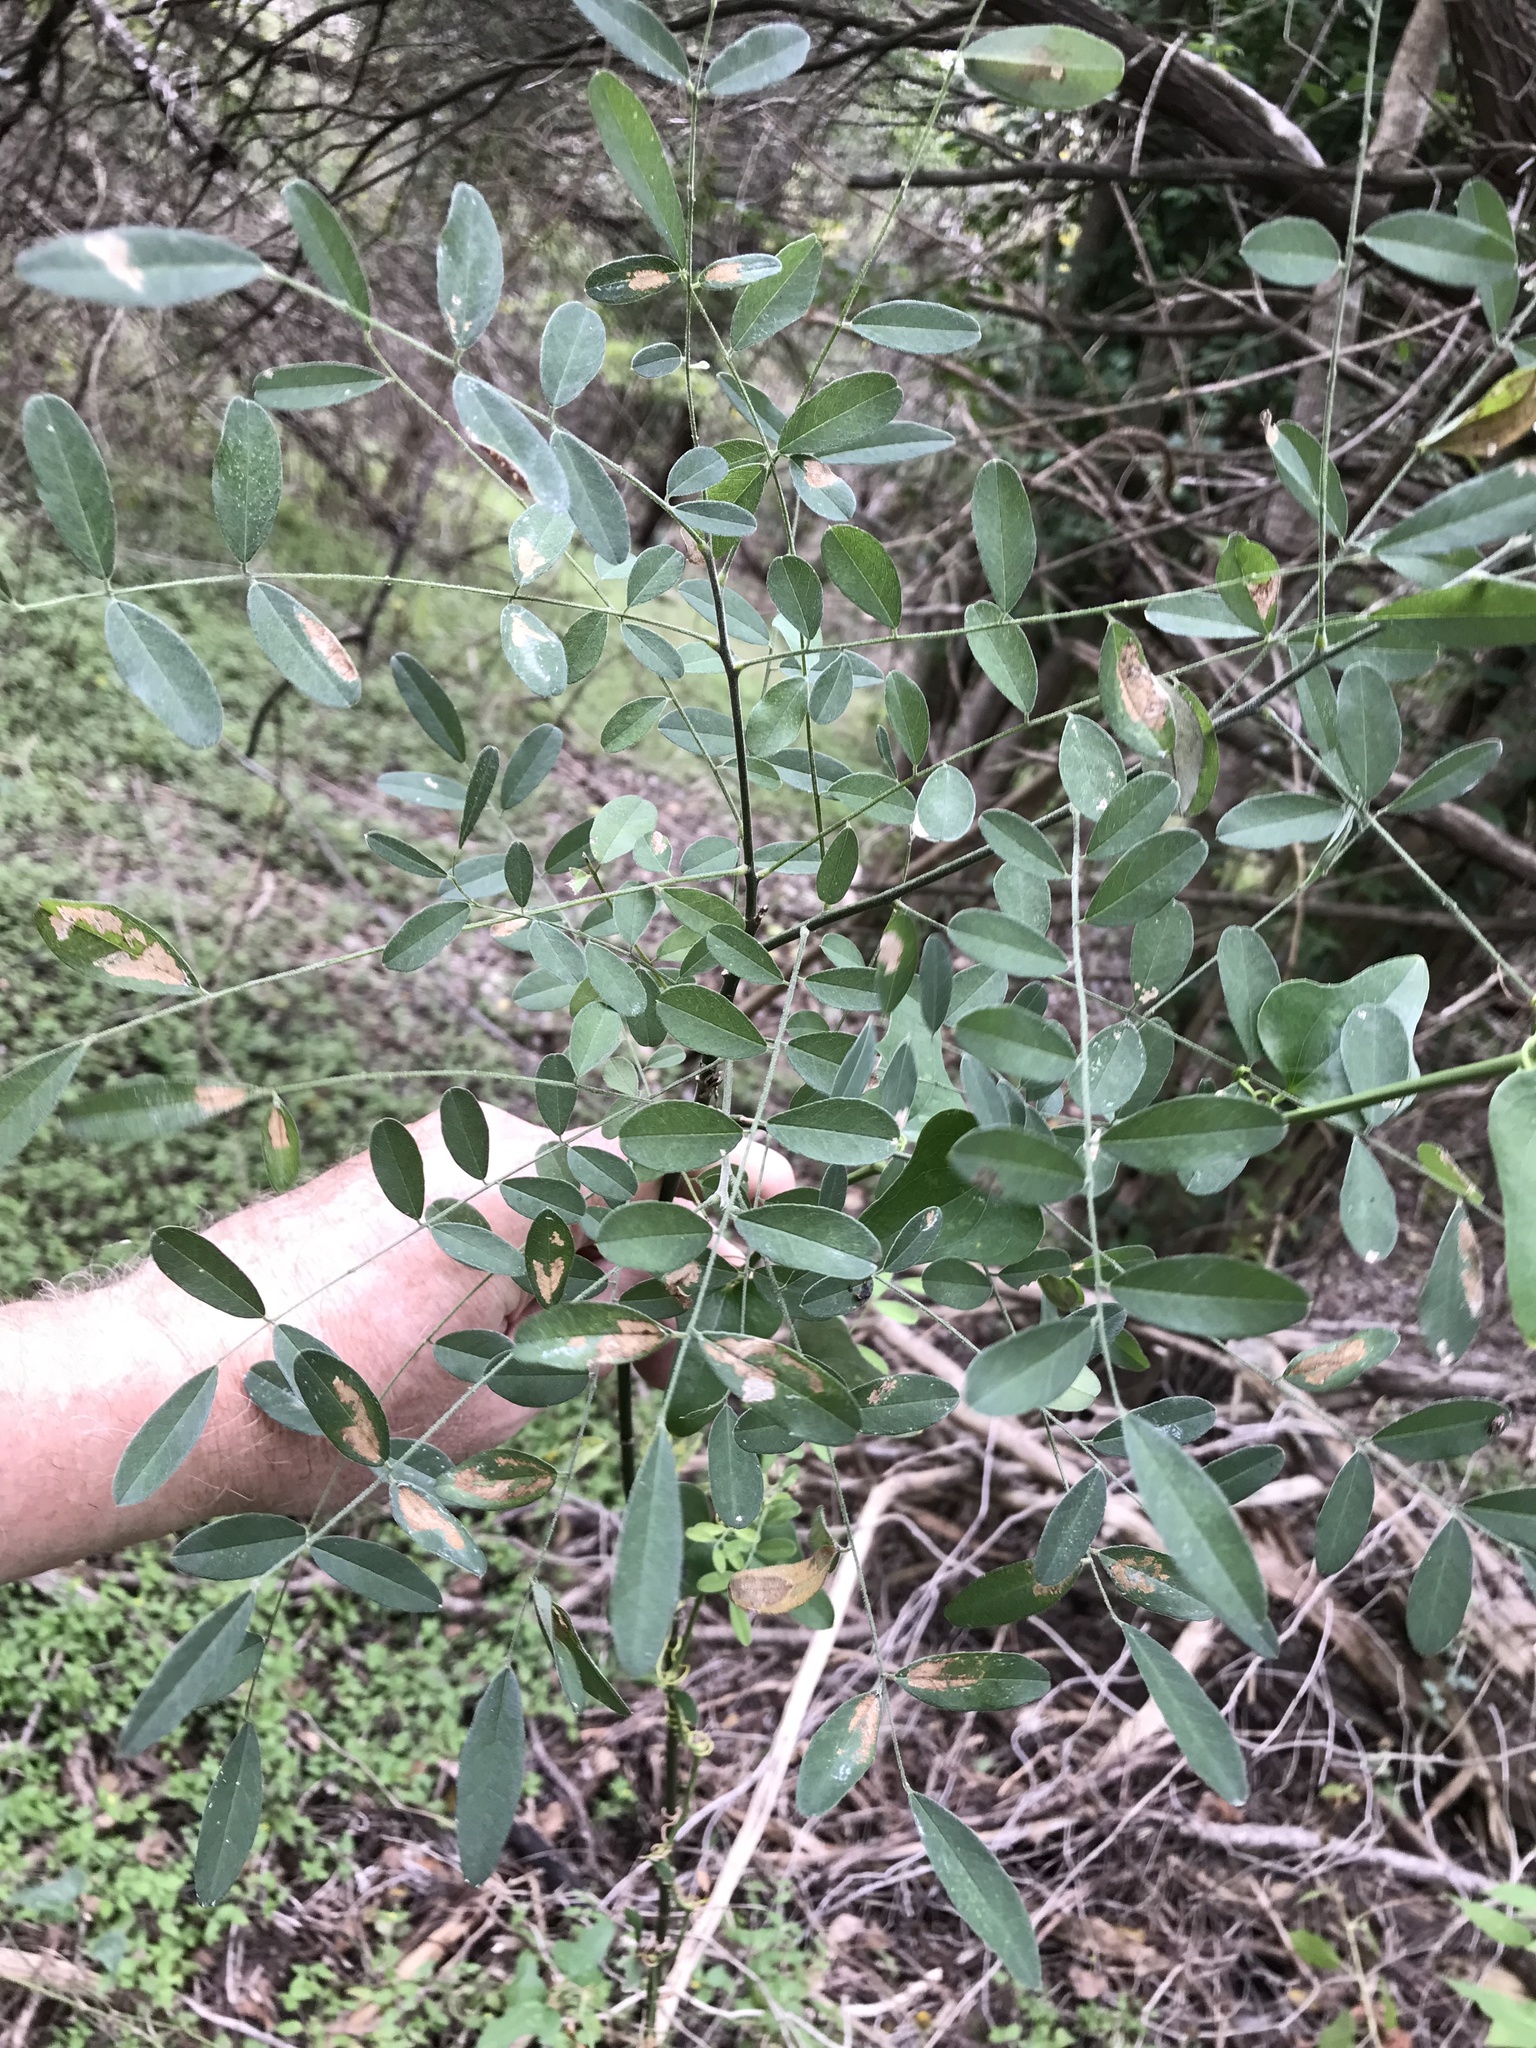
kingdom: Plantae
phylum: Tracheophyta
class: Magnoliopsida
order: Fabales
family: Fabaceae
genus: Styphnolobium
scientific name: Styphnolobium affine
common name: Texas sophora
